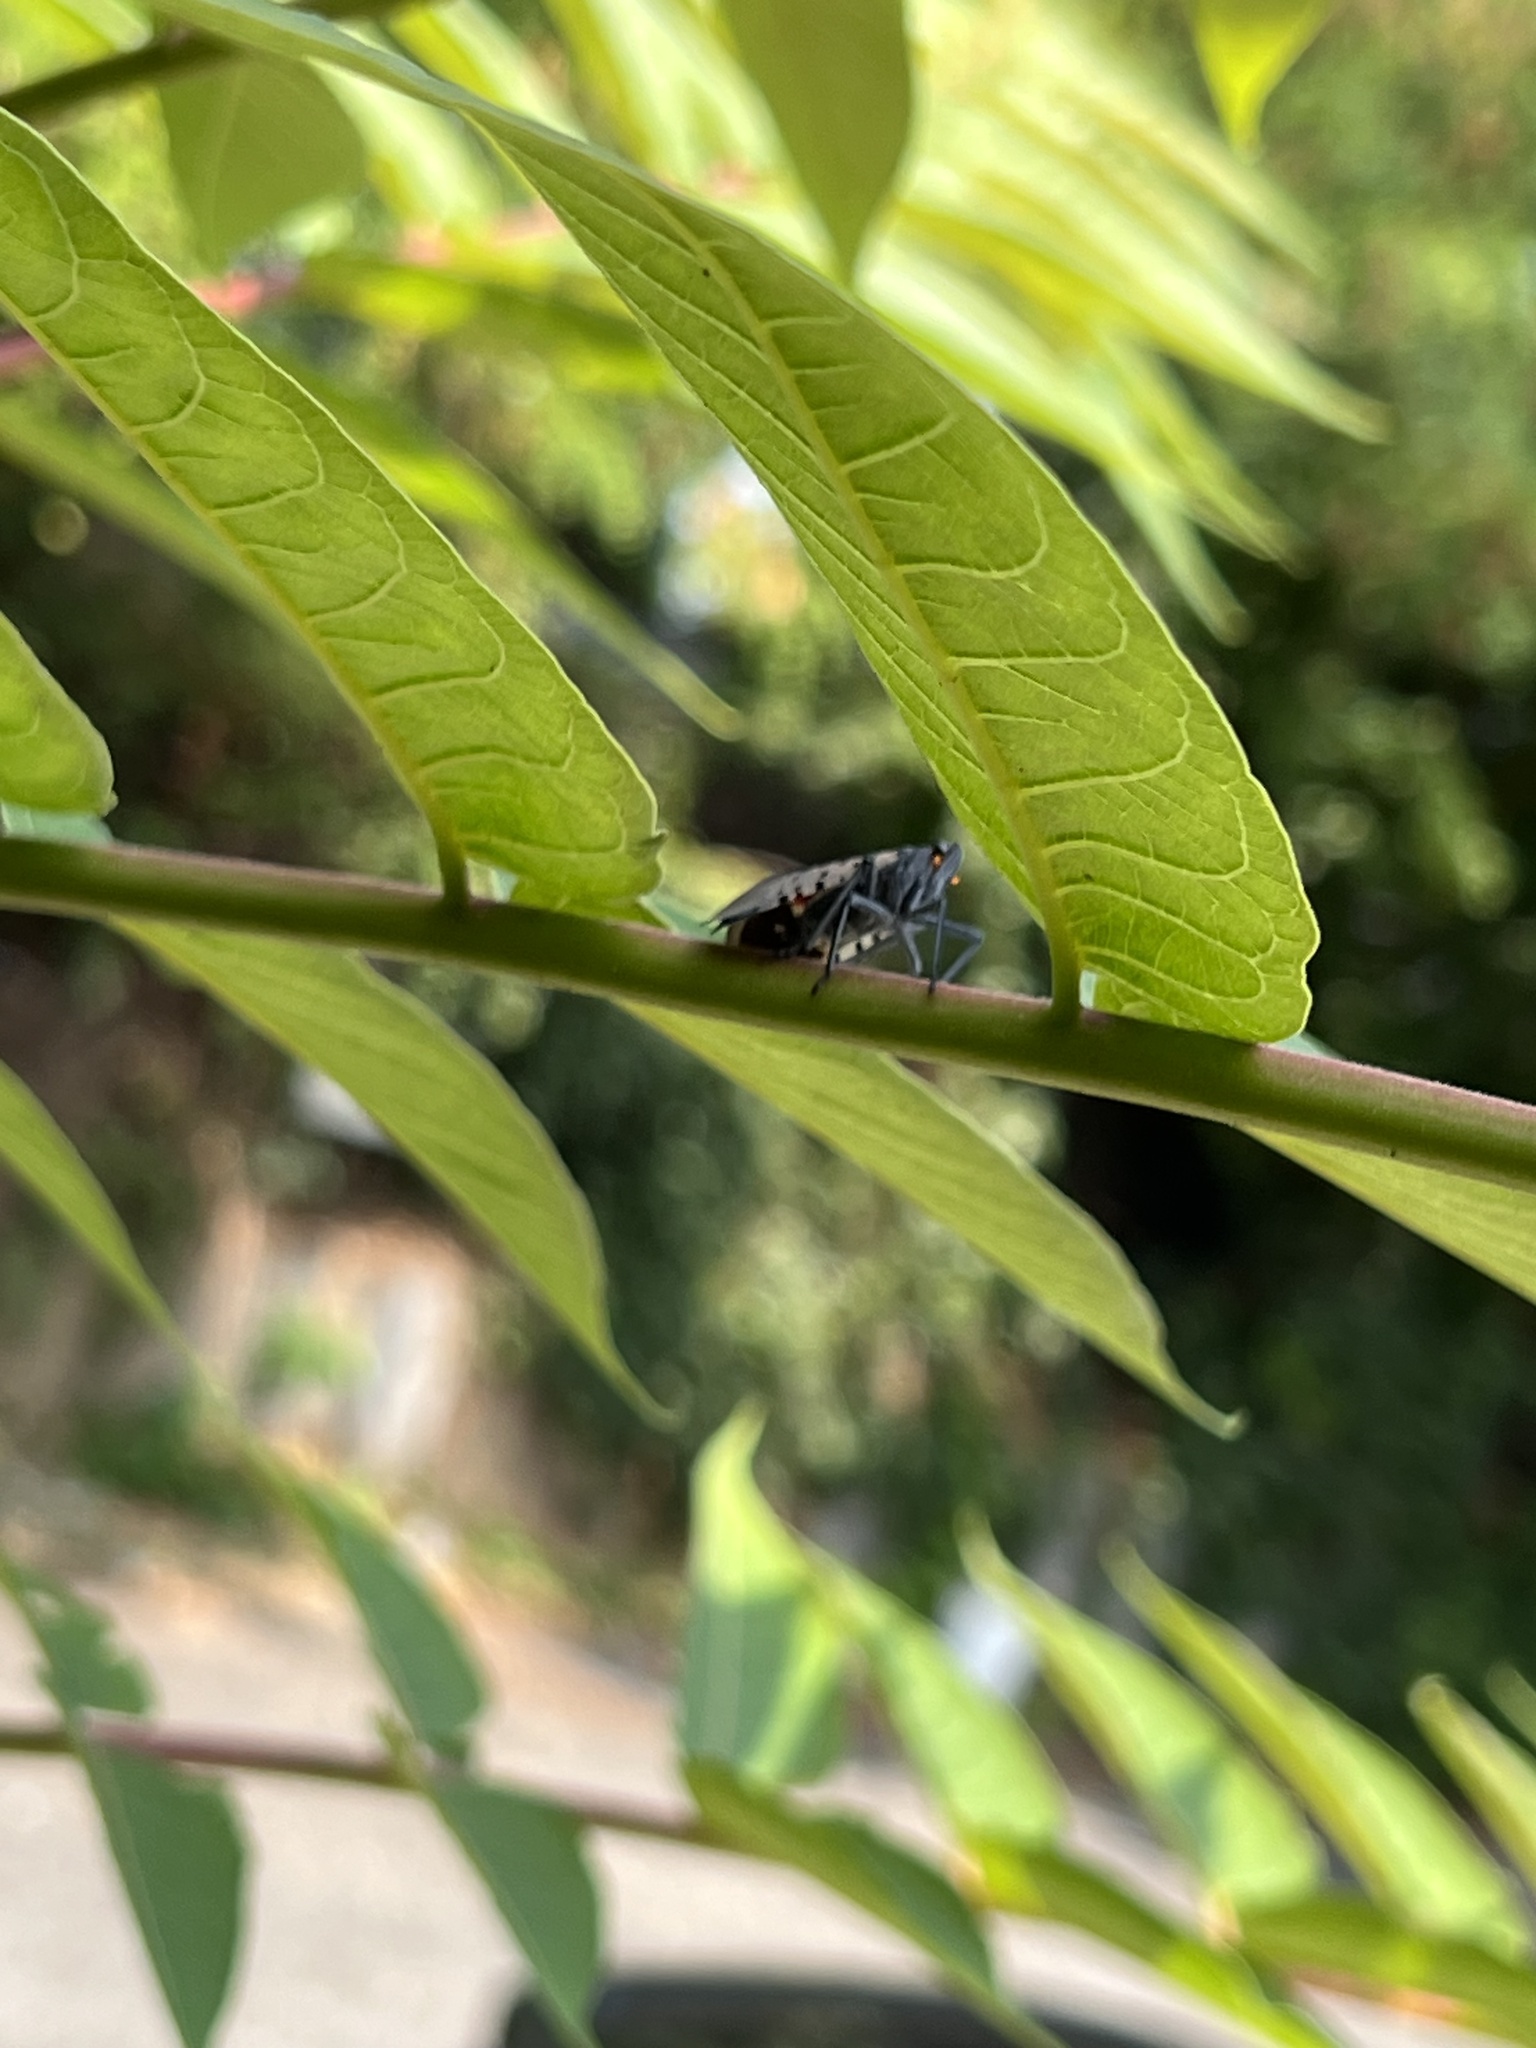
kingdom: Animalia
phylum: Arthropoda
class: Insecta
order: Hemiptera
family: Fulgoridae
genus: Lycorma
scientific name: Lycorma delicatula
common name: Spotted lanternfly
